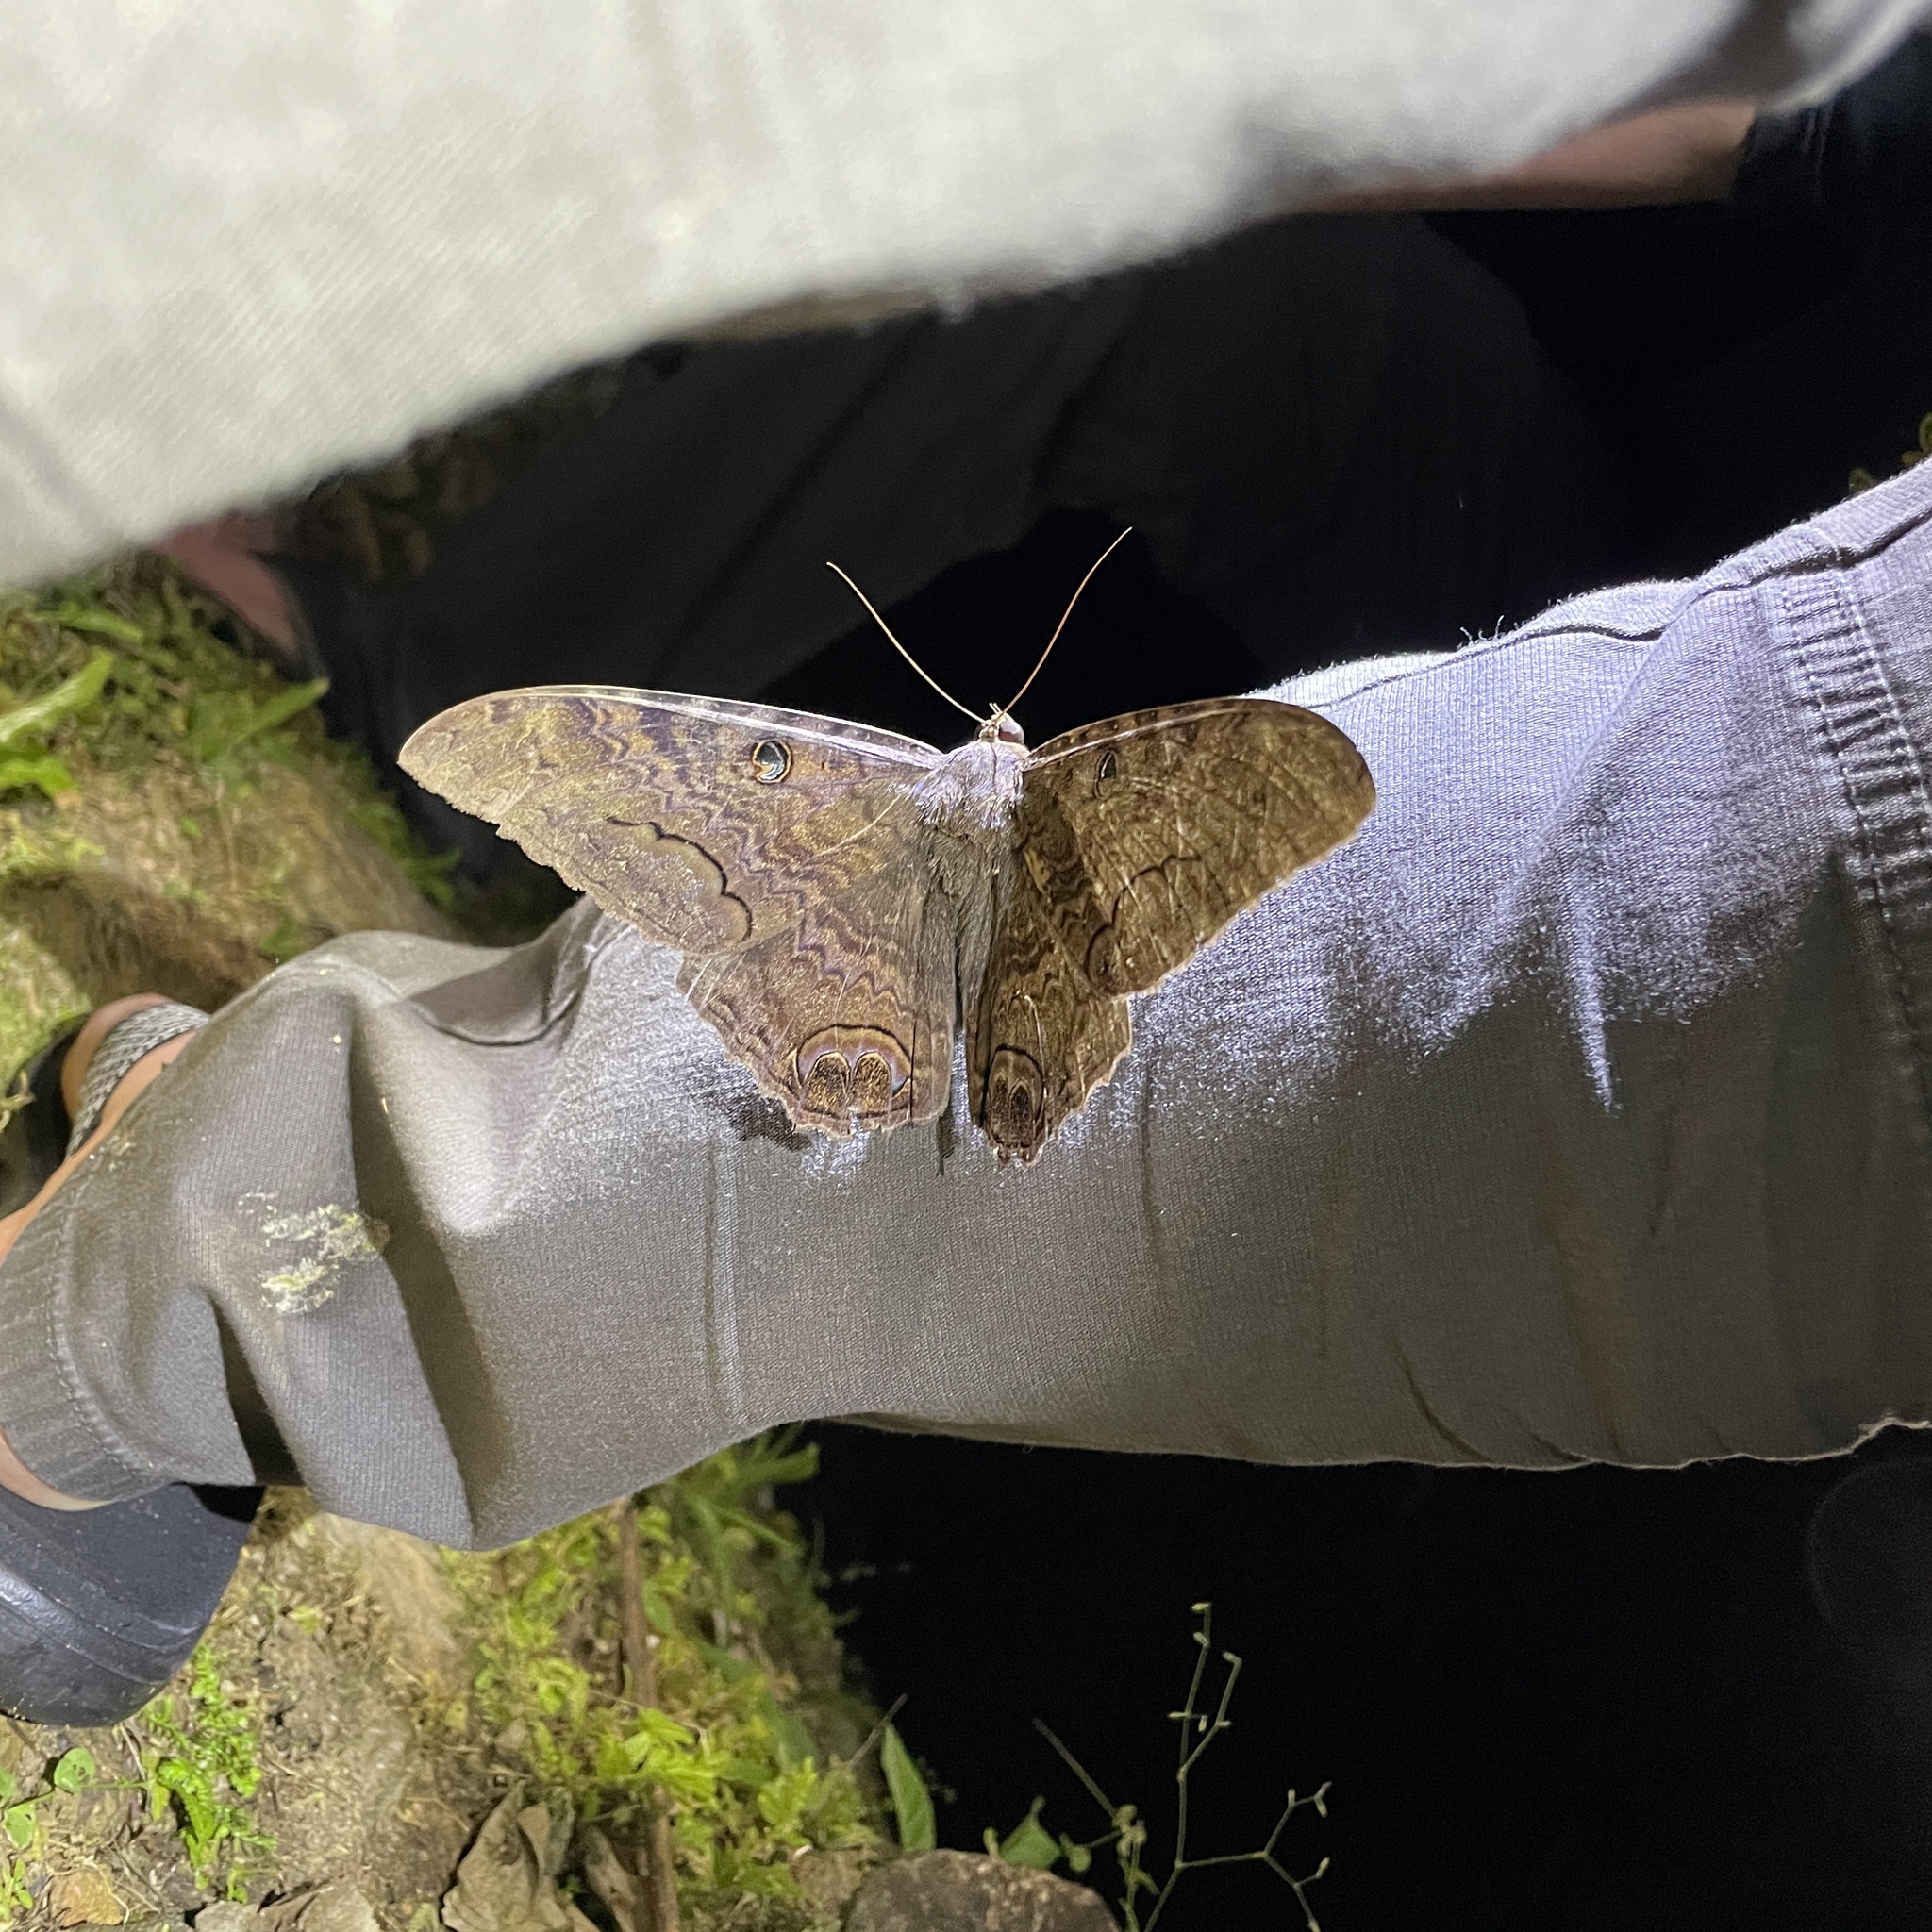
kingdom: Animalia
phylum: Arthropoda
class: Insecta
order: Lepidoptera
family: Erebidae
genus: Ascalapha
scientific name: Ascalapha odorata
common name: Black witch
